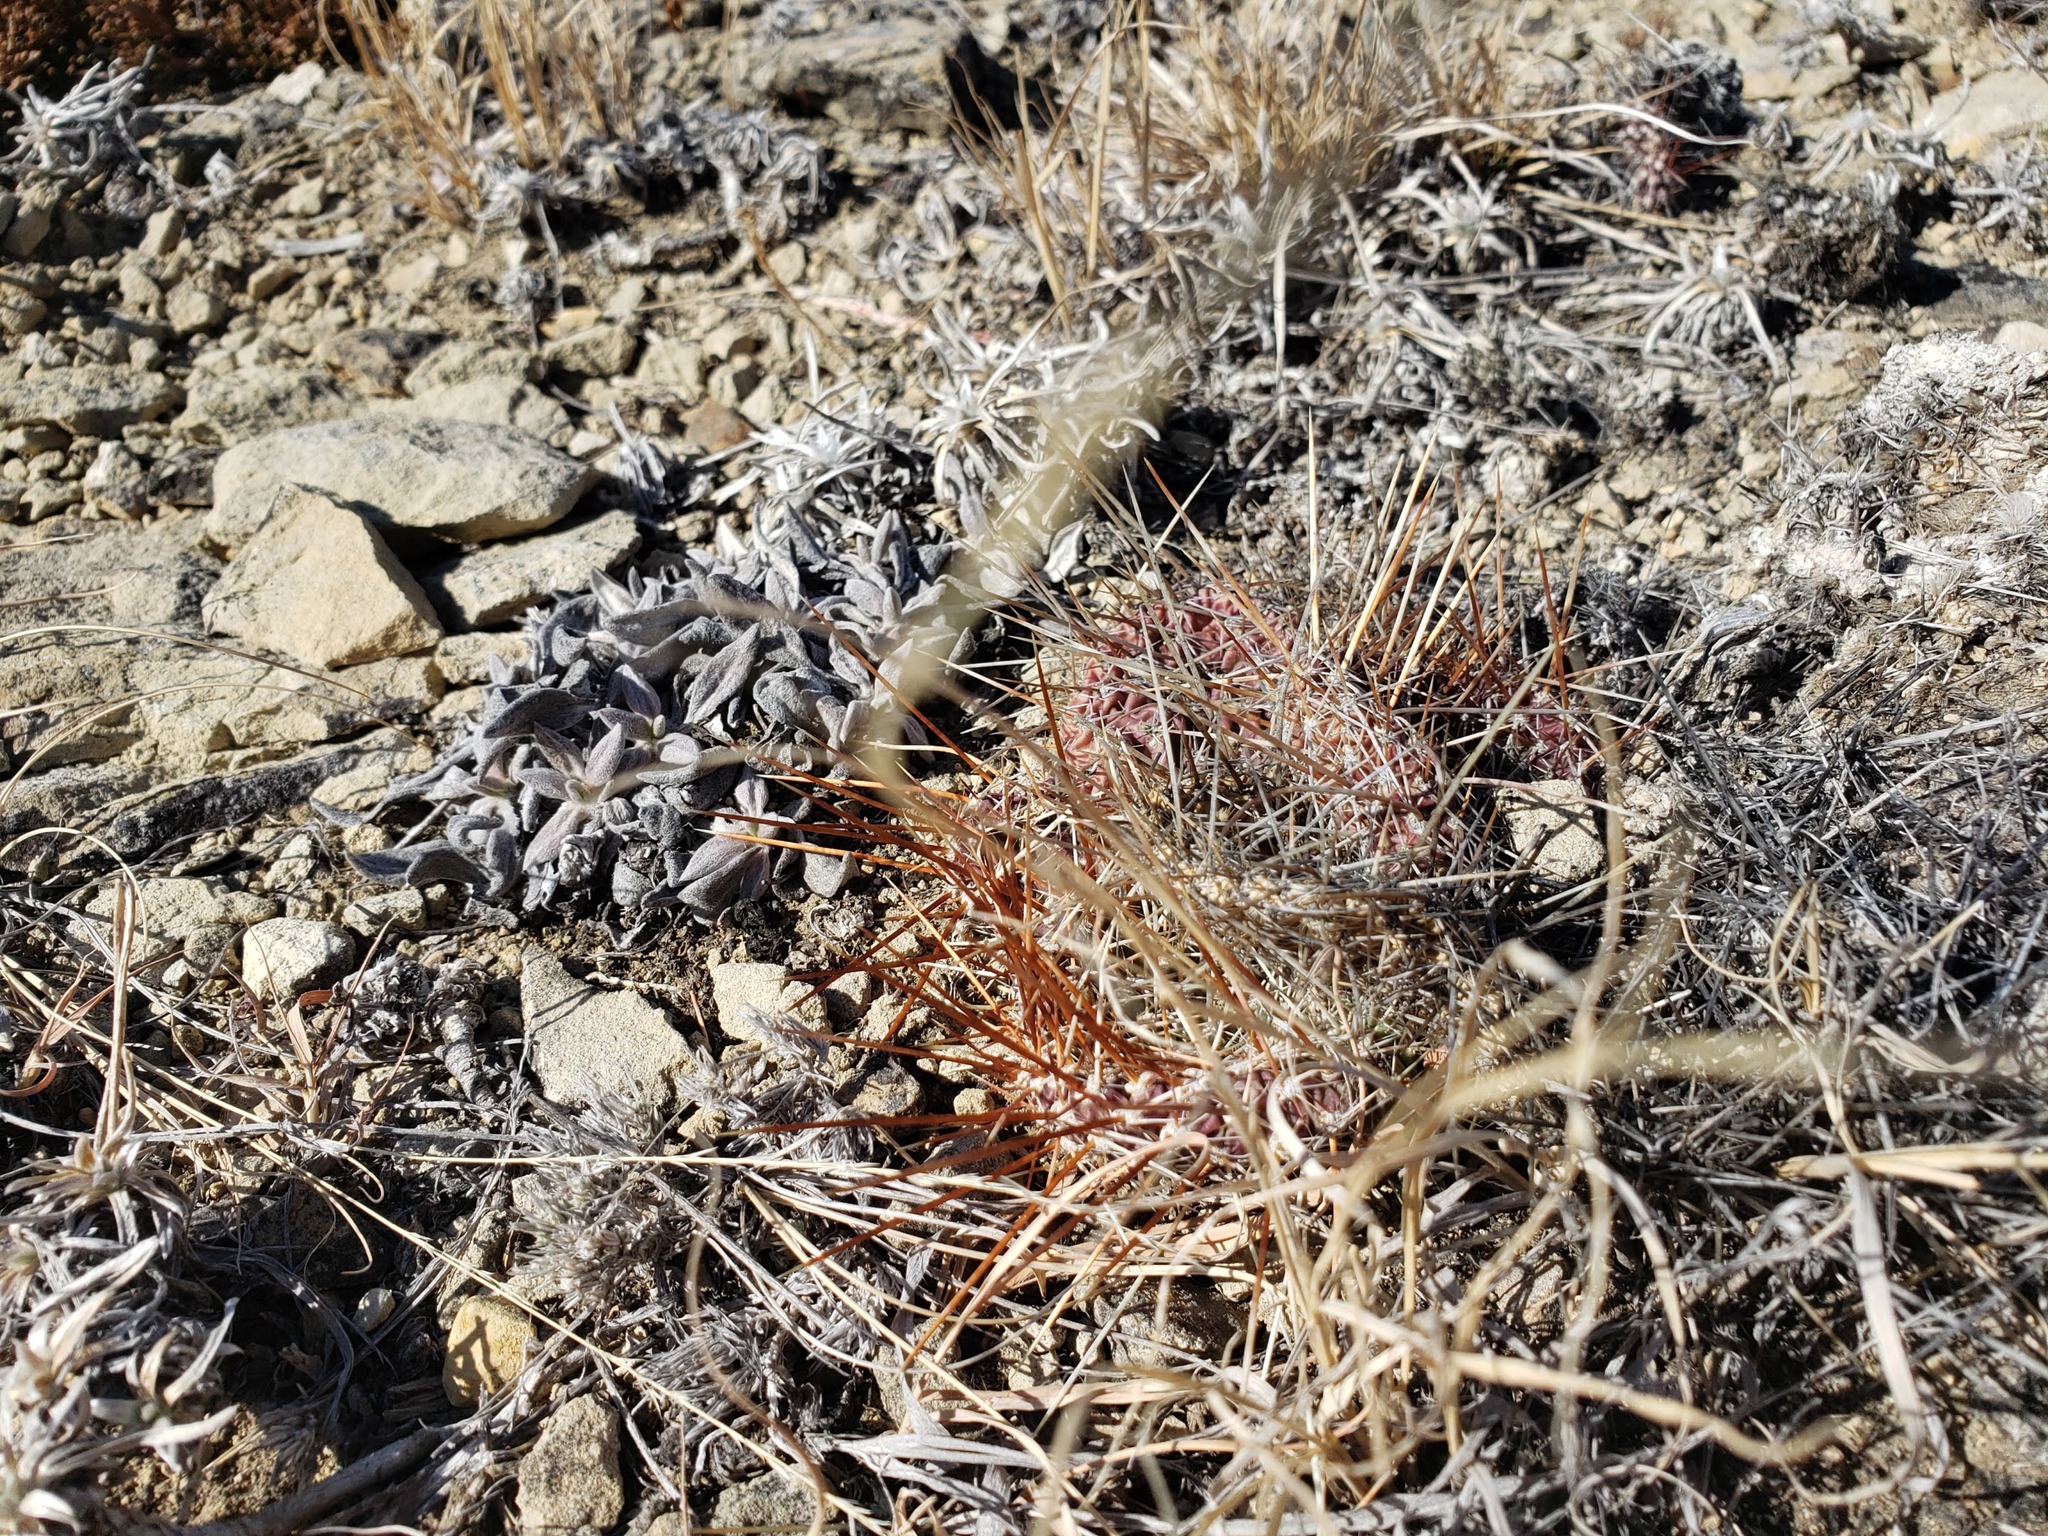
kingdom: Plantae
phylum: Tracheophyta
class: Magnoliopsida
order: Caryophyllales
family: Cactaceae
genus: Opuntia
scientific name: Opuntia polyacantha
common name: Plains prickly-pear
